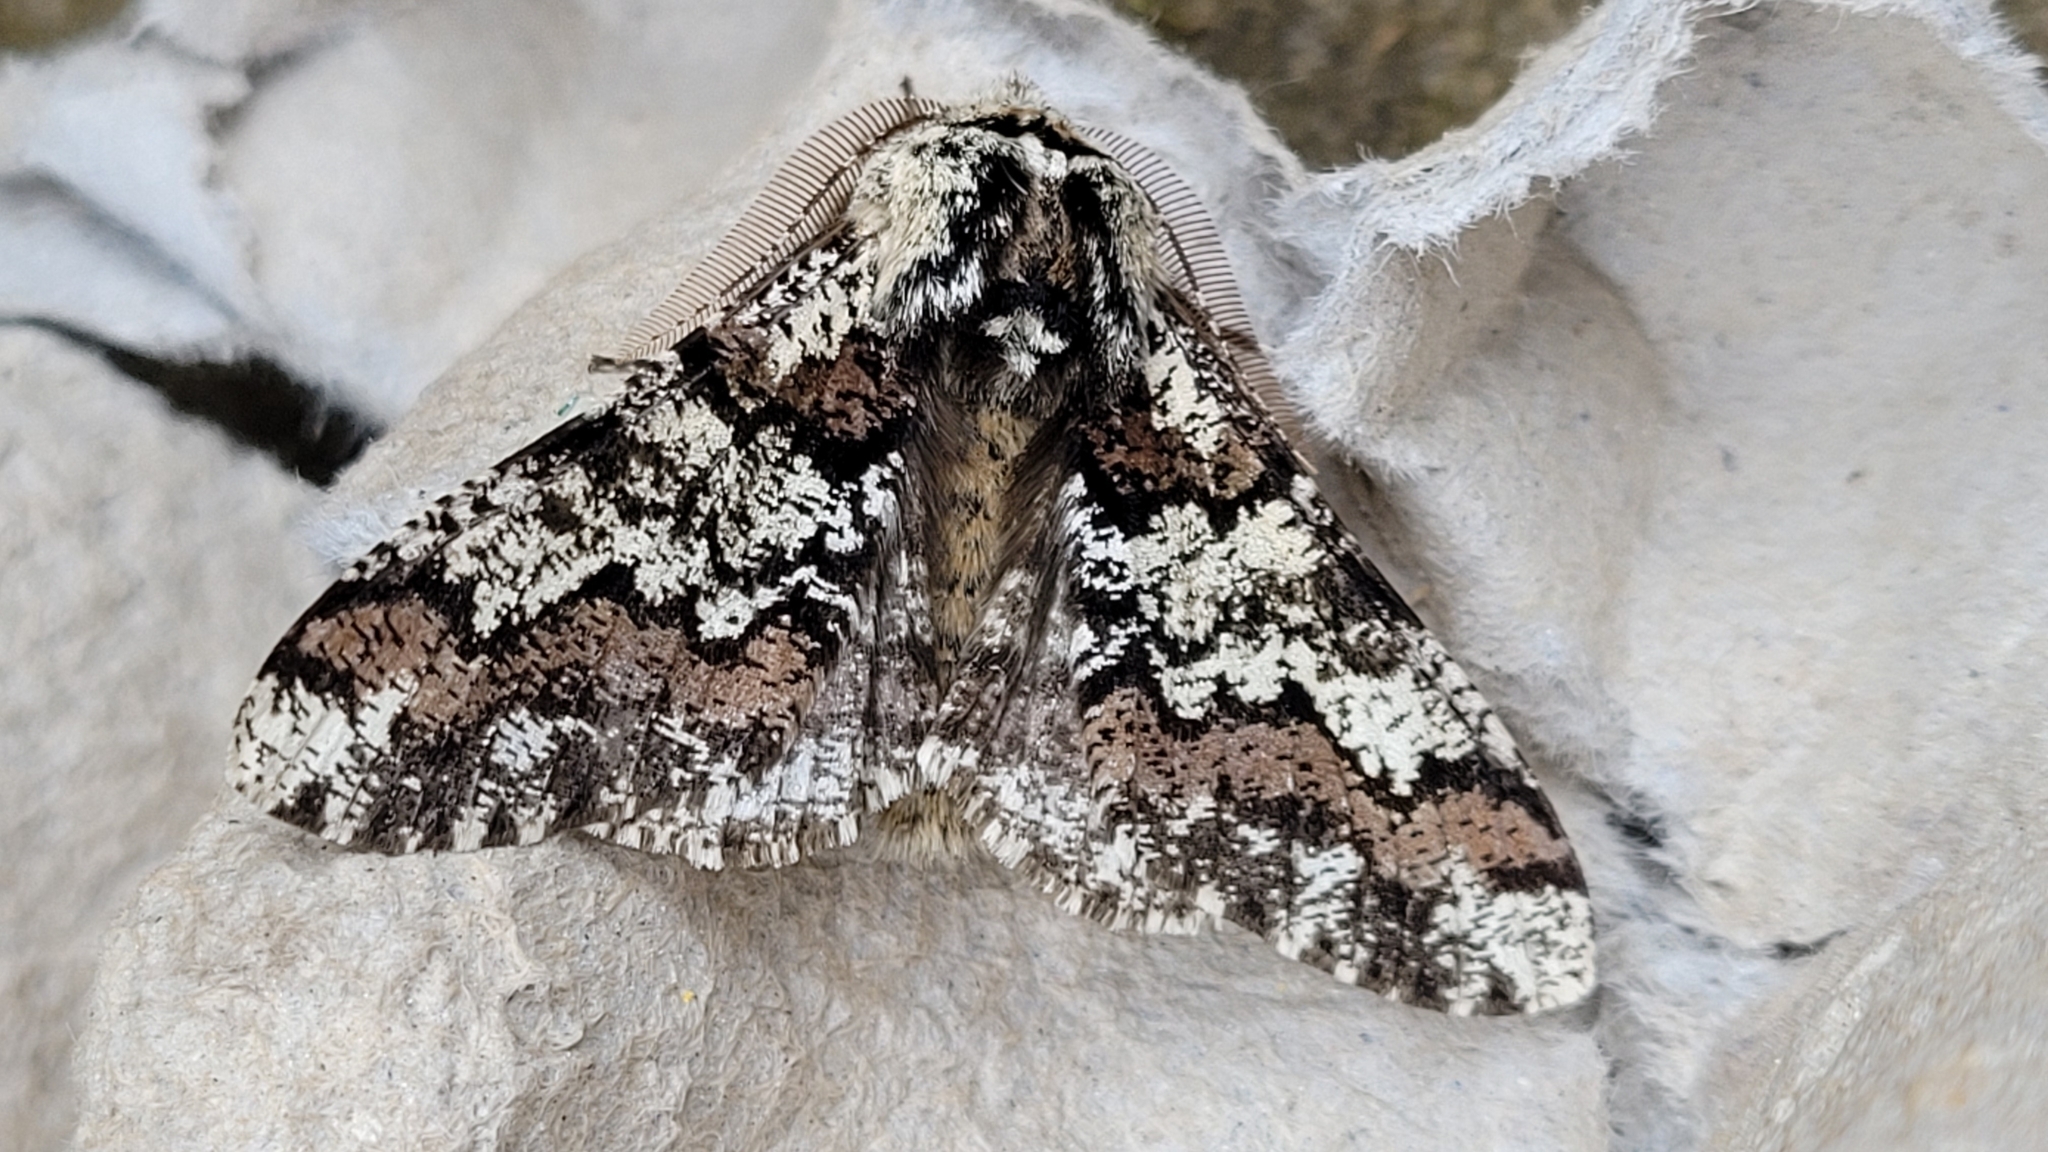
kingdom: Animalia
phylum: Arthropoda
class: Insecta
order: Lepidoptera
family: Geometridae
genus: Biston
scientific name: Biston strataria
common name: Oak beauty
